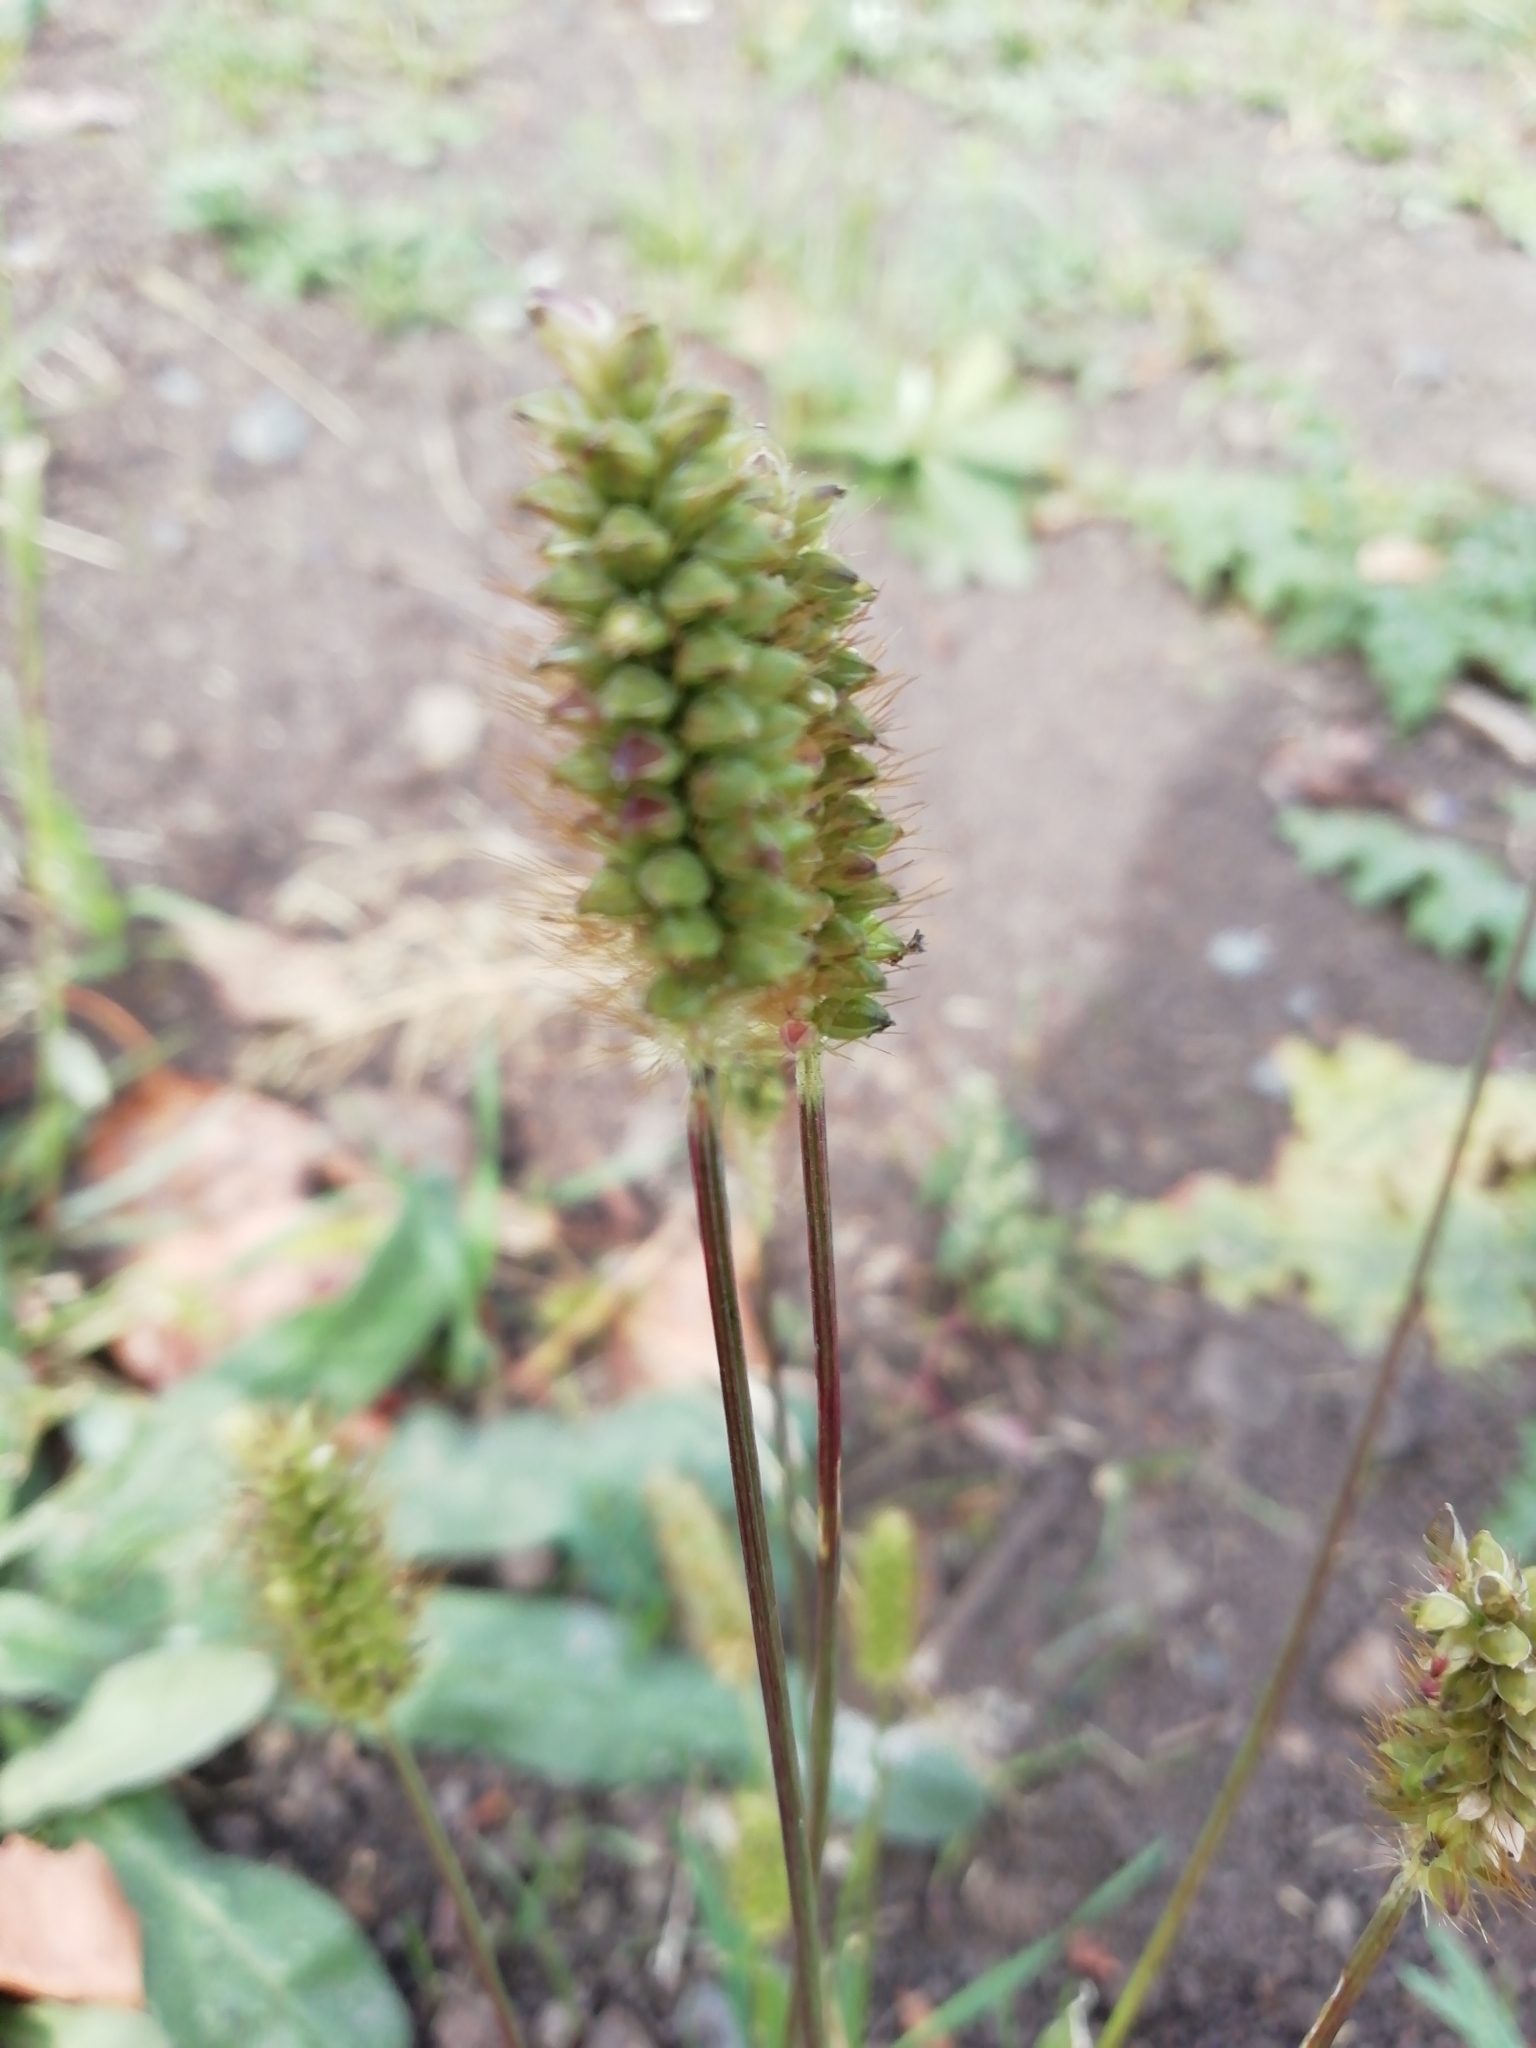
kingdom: Plantae
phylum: Tracheophyta
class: Liliopsida
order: Poales
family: Poaceae
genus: Setaria
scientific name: Setaria pumila
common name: Yellow bristle-grass
